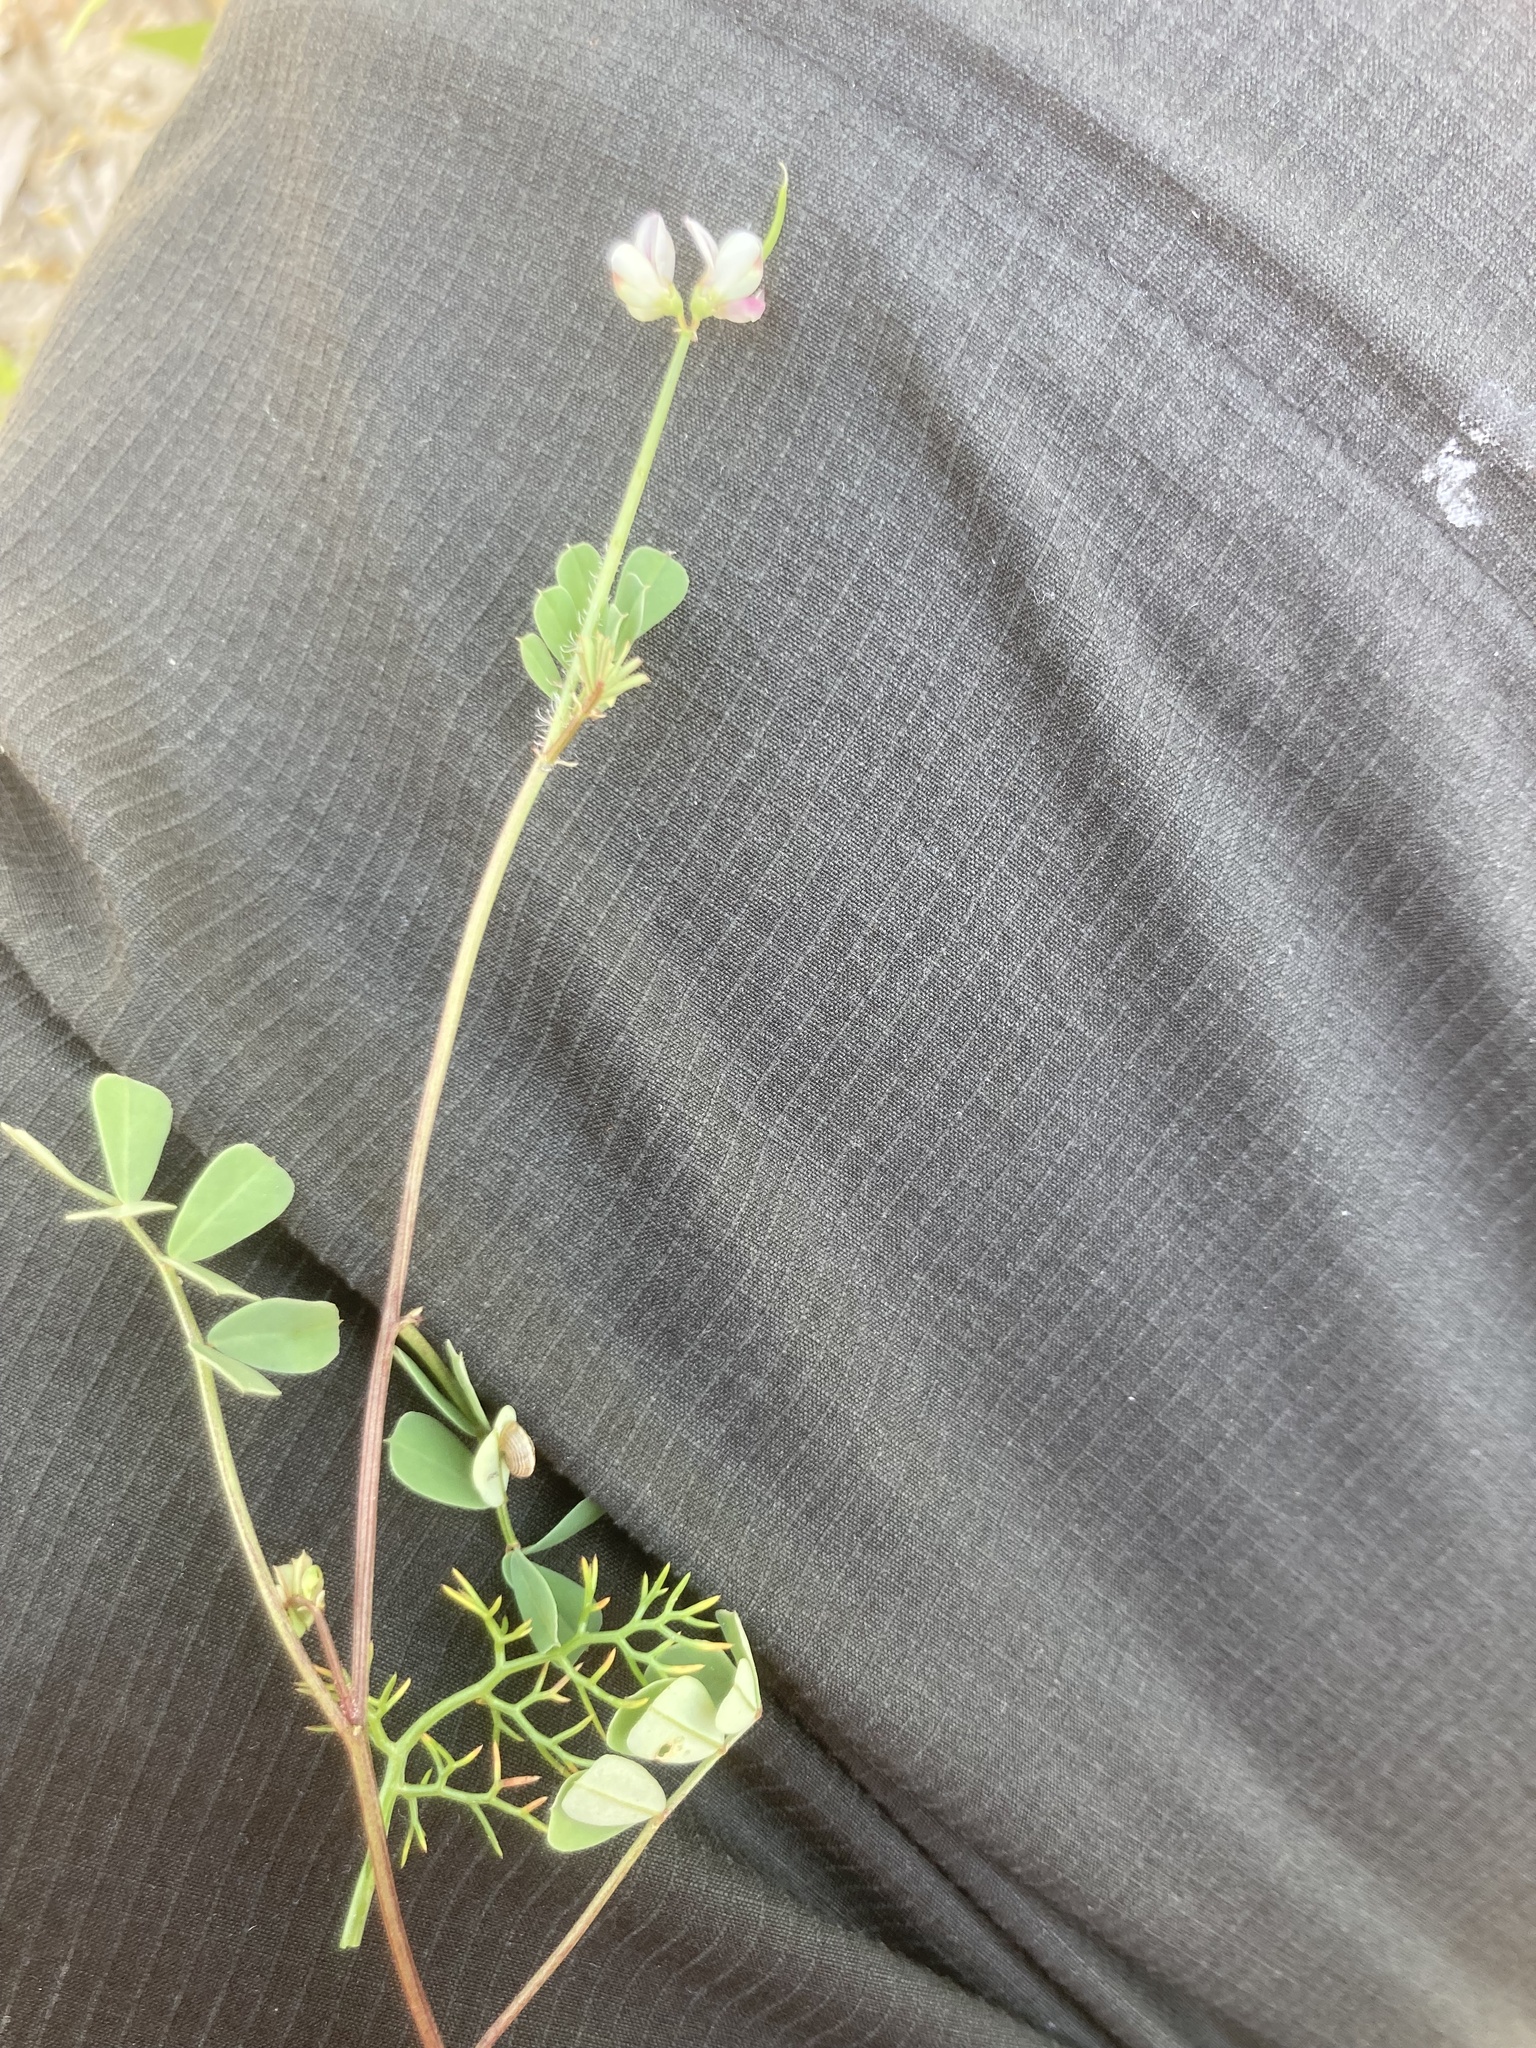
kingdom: Animalia
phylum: Arthropoda
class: Insecta
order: Orthoptera
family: Romaleidae
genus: Securigera
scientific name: Securigera
